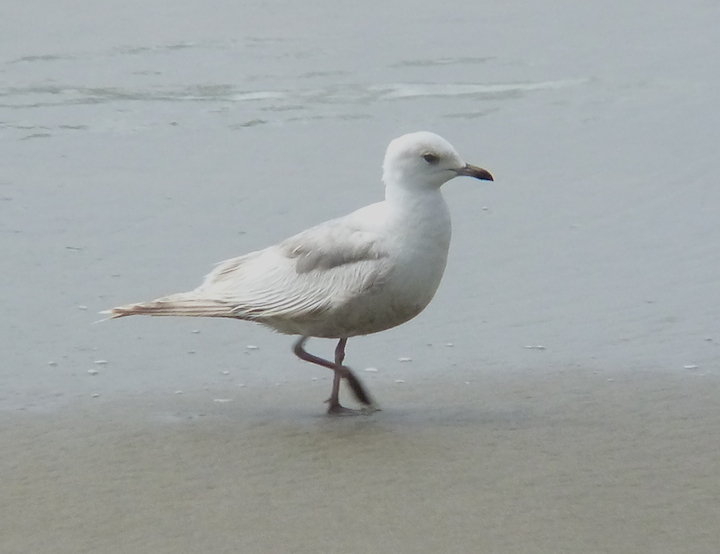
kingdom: Animalia
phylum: Chordata
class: Aves
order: Charadriiformes
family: Laridae
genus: Larus
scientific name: Larus brachyrhynchus
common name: Short-billed gull
